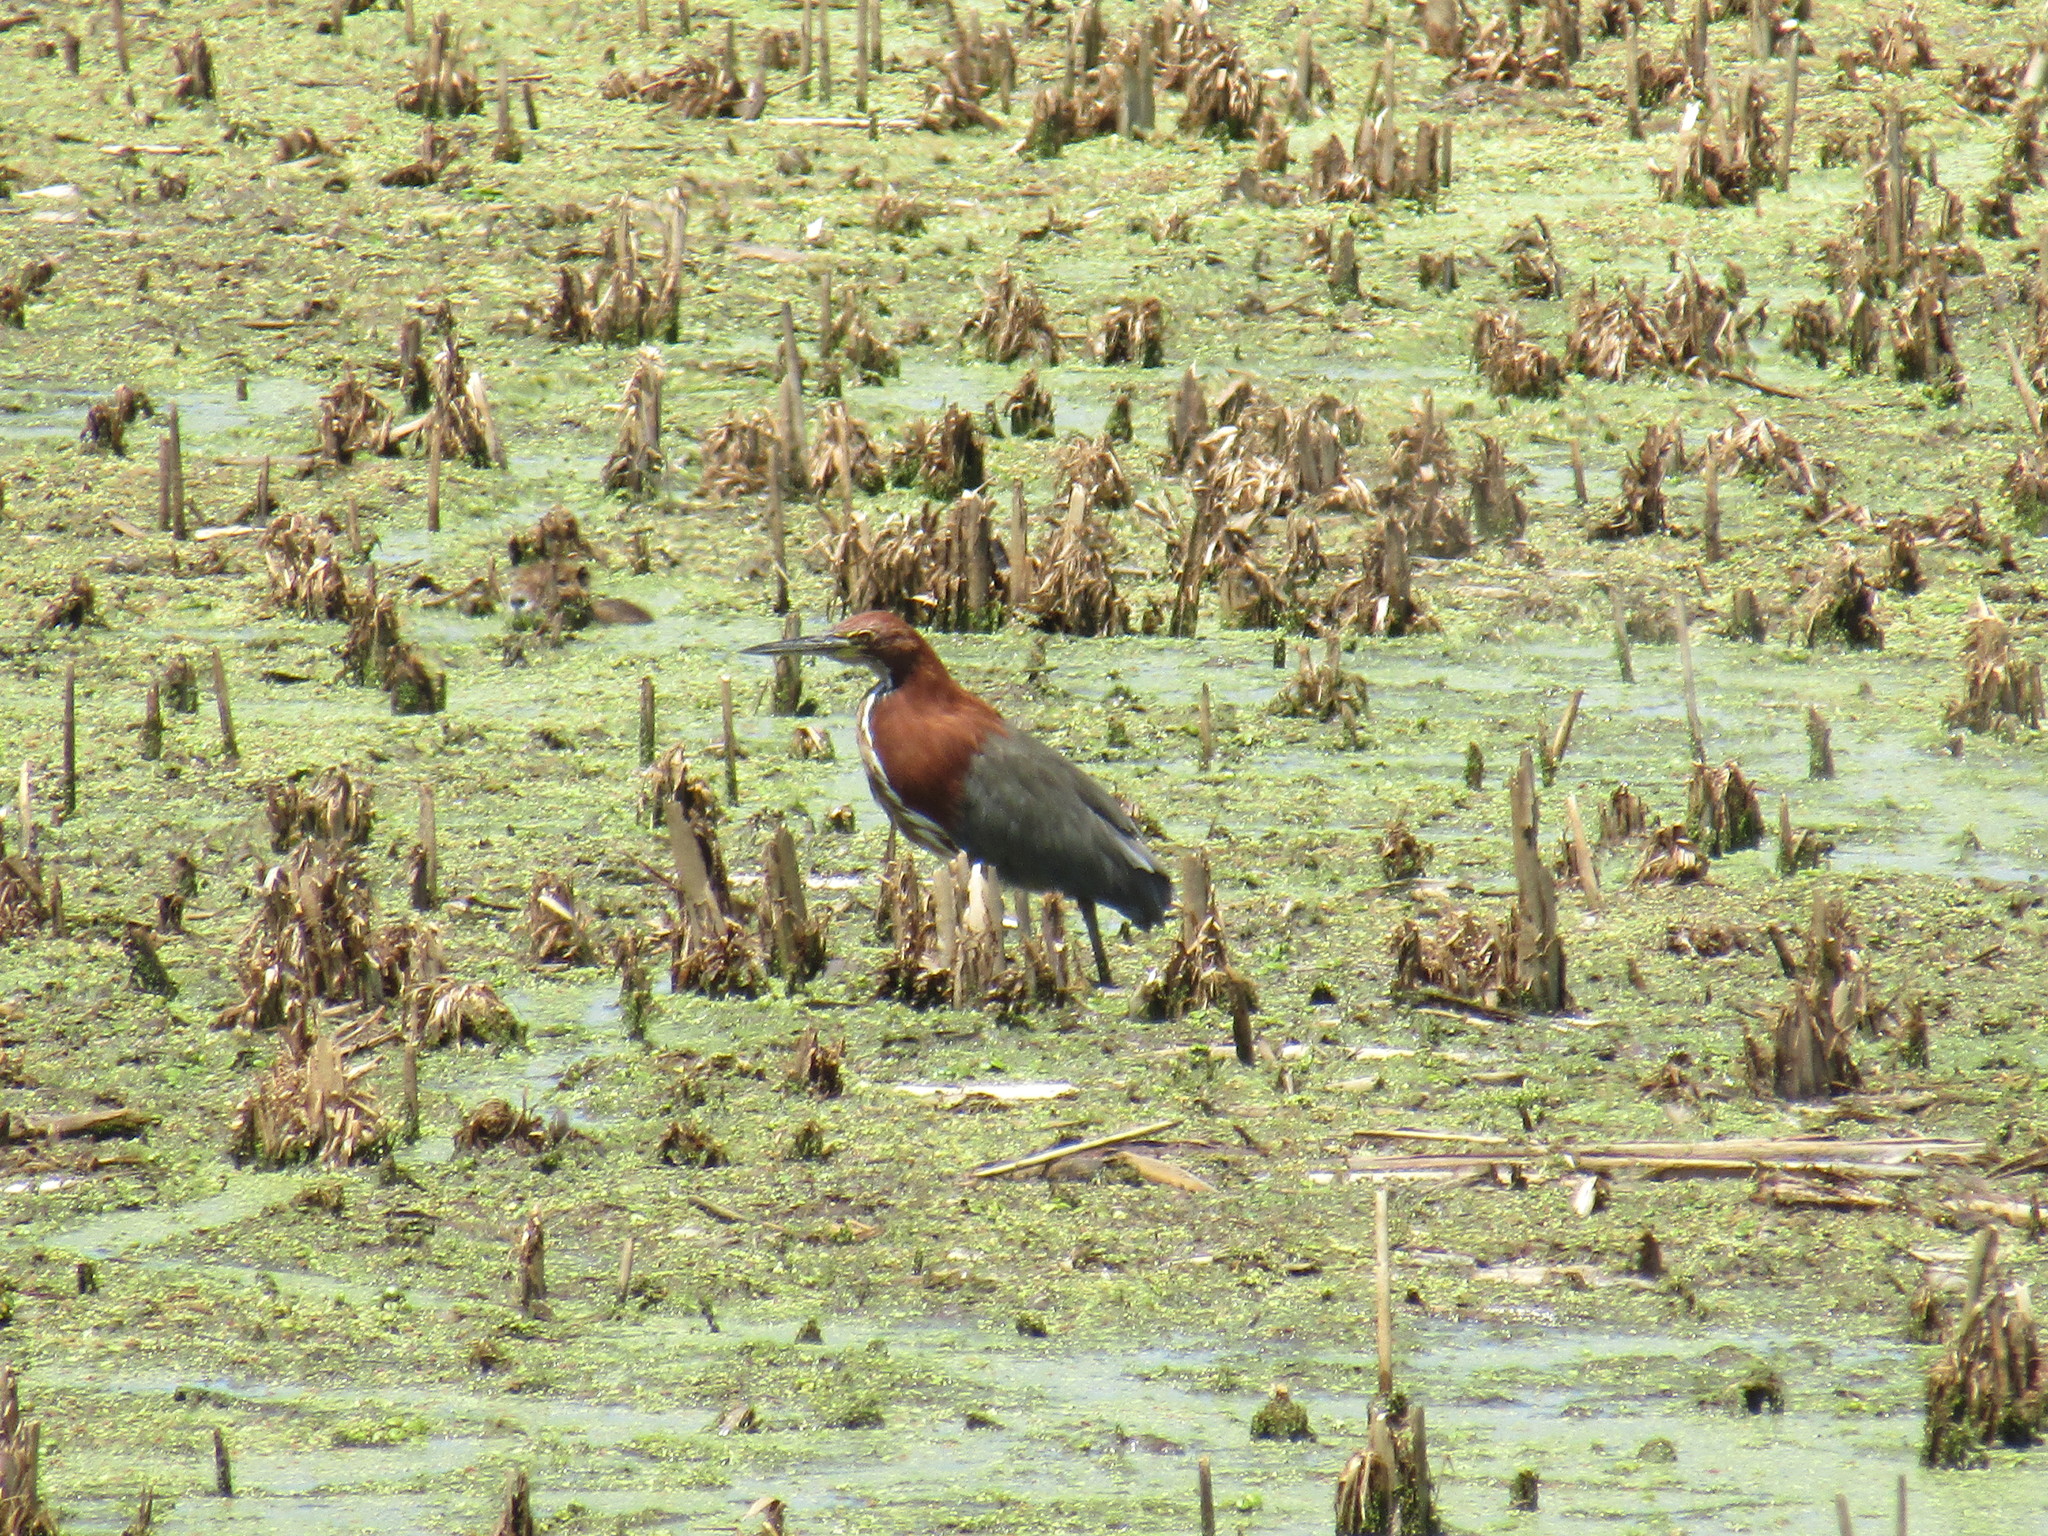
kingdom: Animalia
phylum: Chordata
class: Aves
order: Pelecaniformes
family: Ardeidae
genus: Tigrisoma
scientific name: Tigrisoma lineatum
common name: Rufescent tiger-heron
